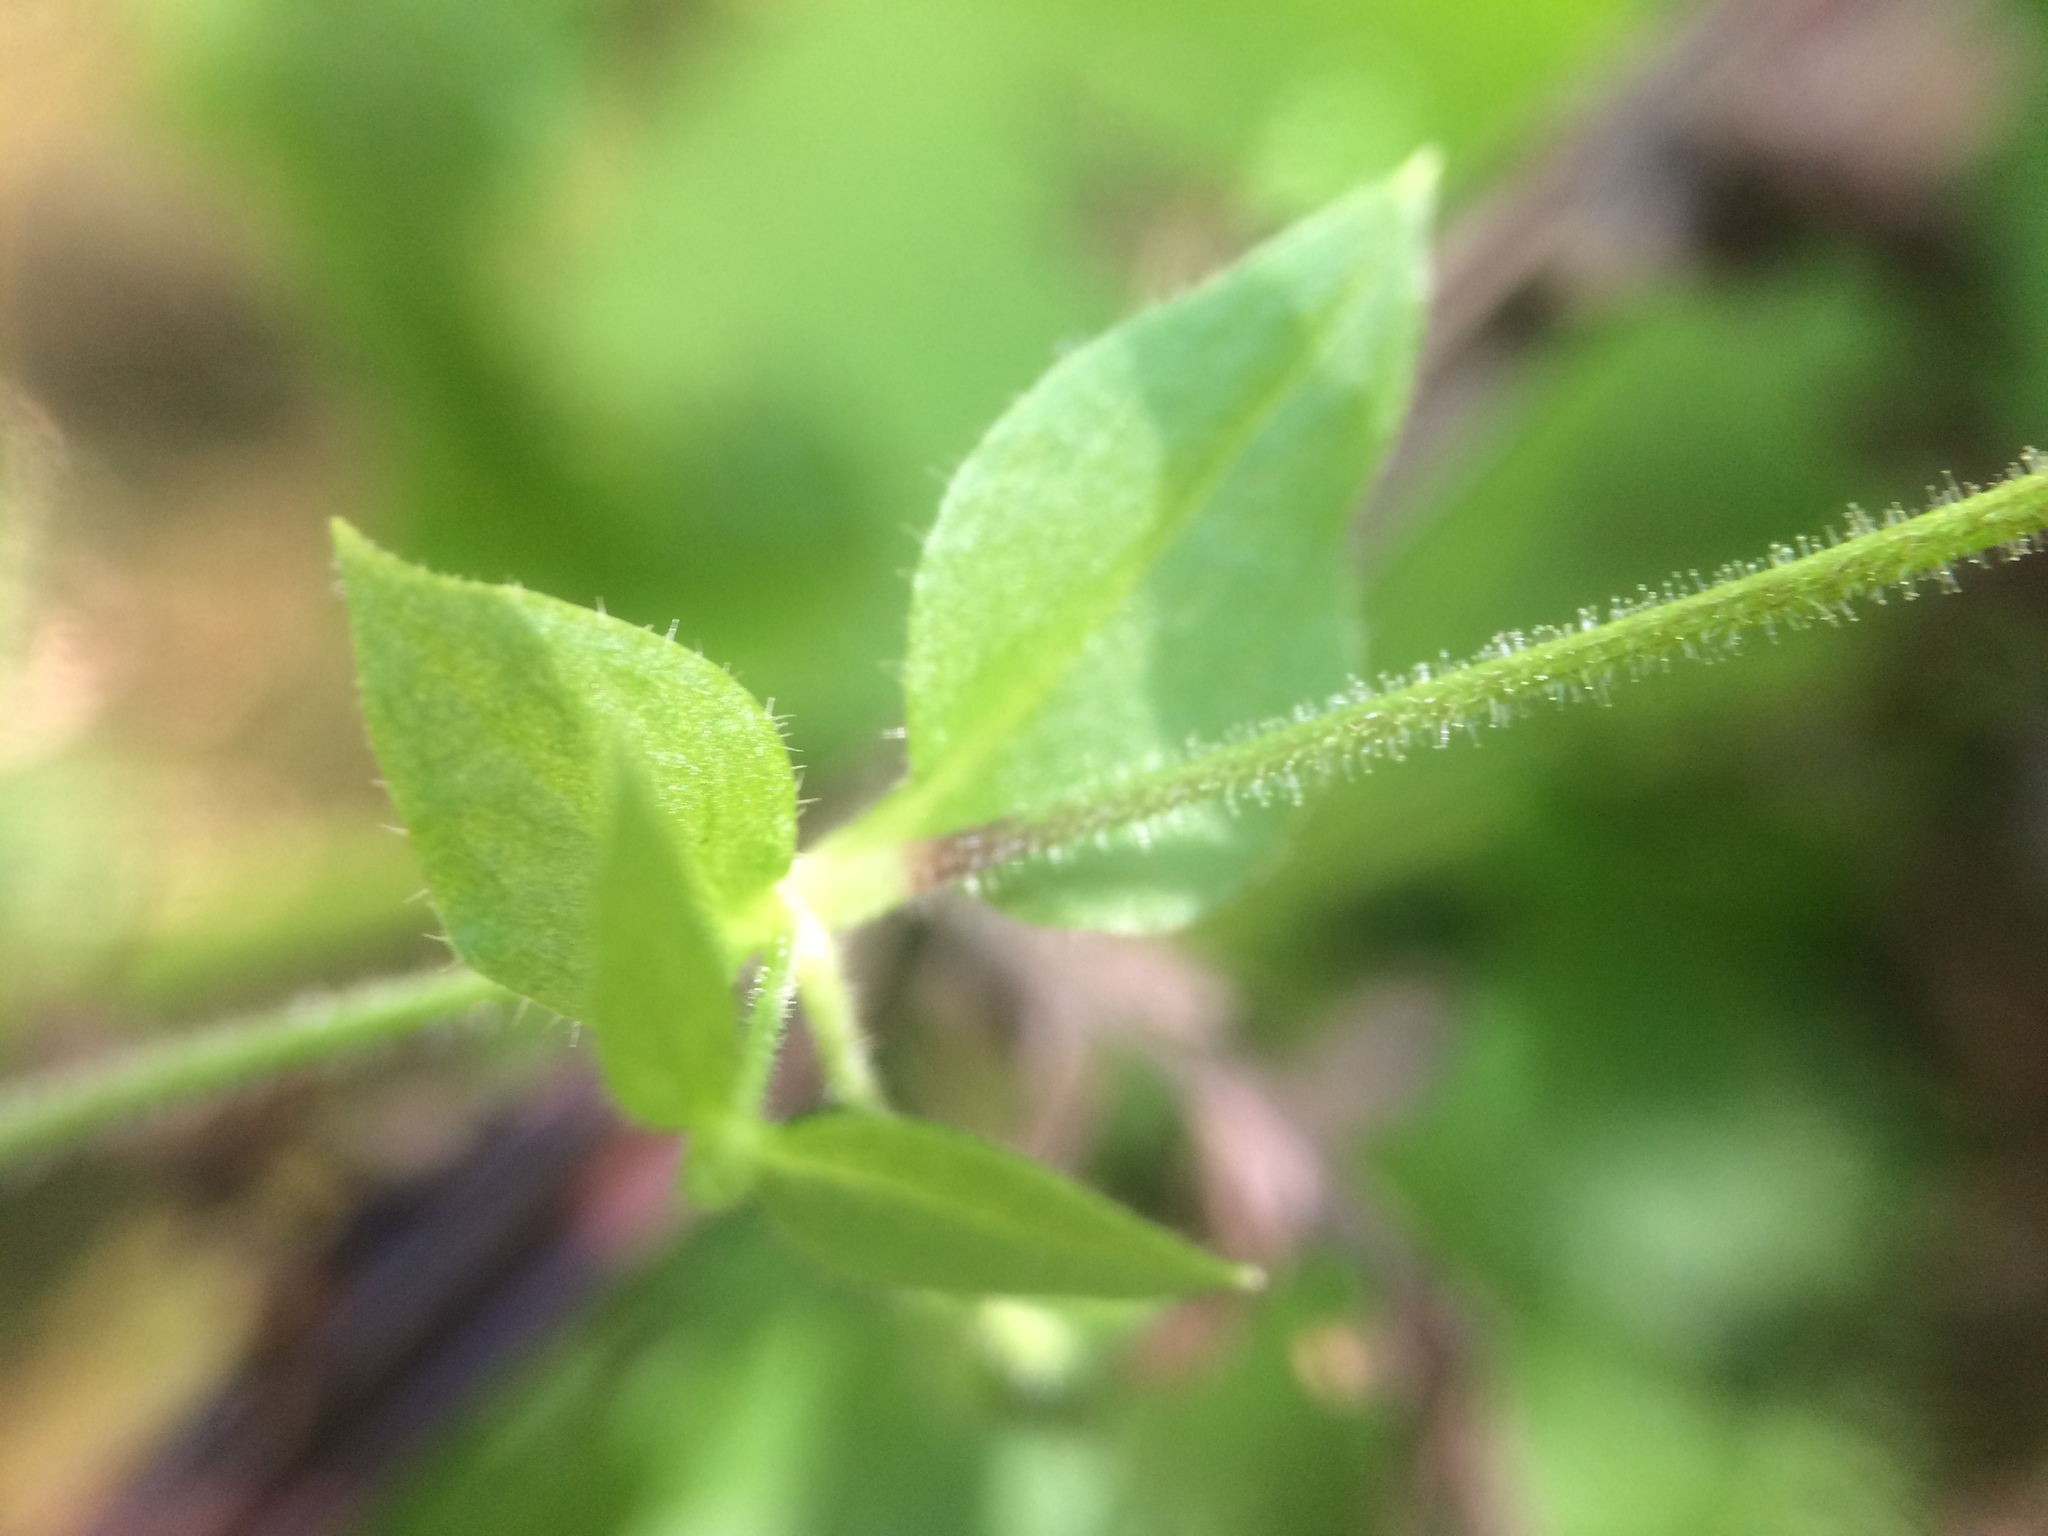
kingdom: Plantae
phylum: Tracheophyta
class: Magnoliopsida
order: Caryophyllales
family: Caryophyllaceae
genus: Stellaria
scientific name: Stellaria aquatica
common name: Water chickweed
